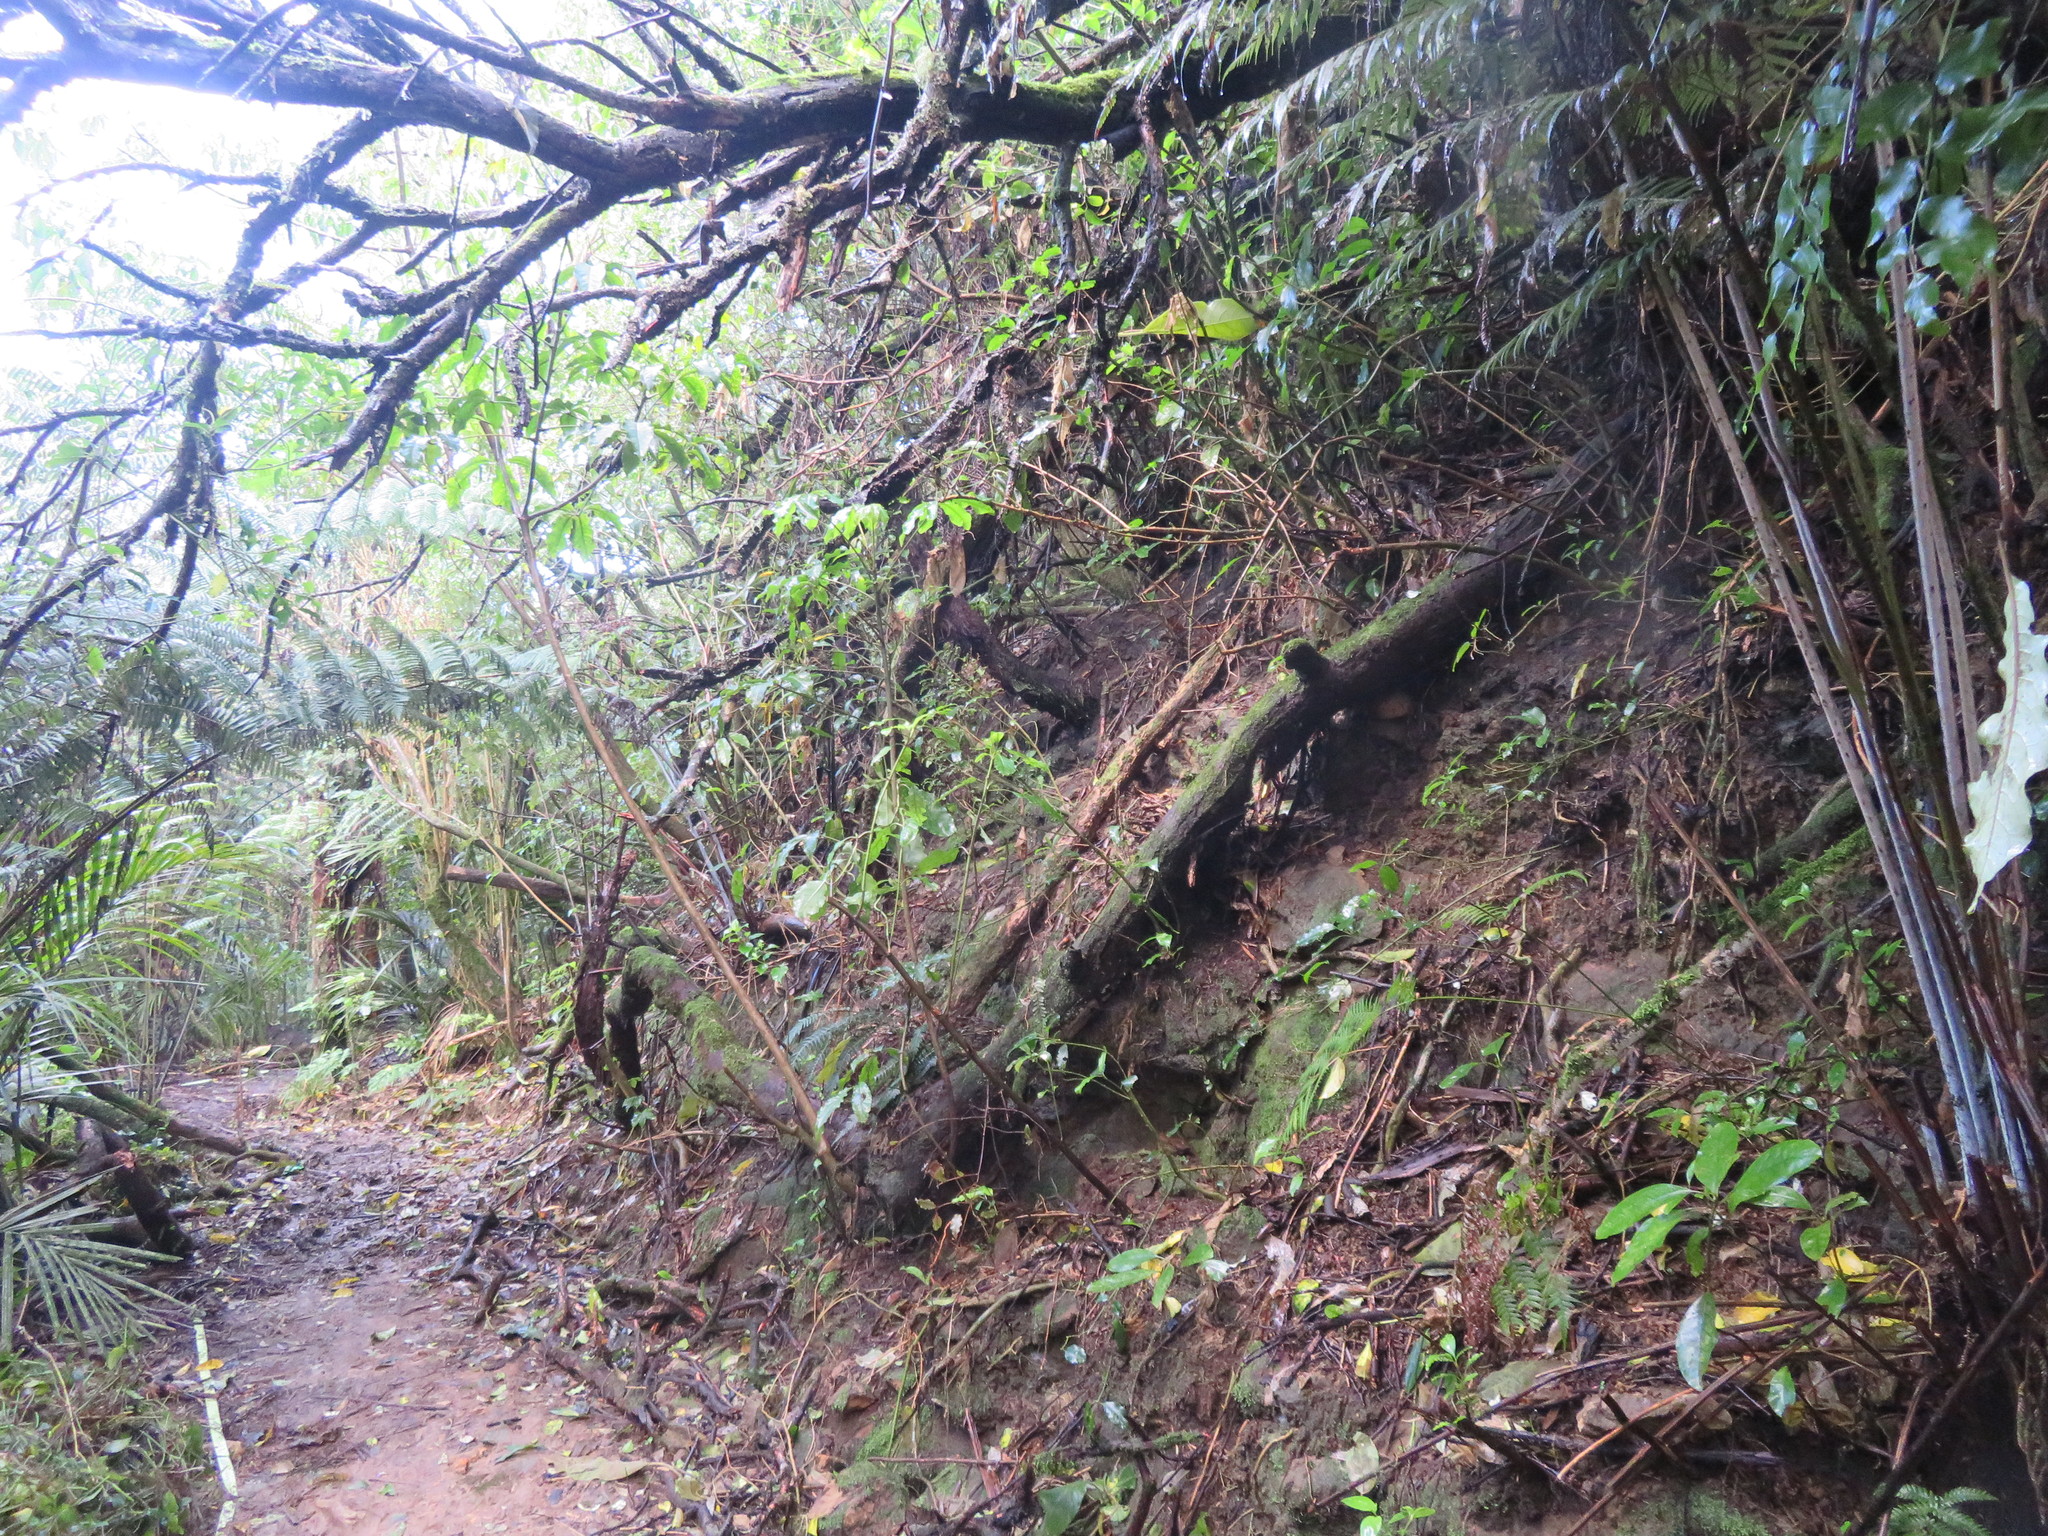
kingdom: Plantae
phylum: Tracheophyta
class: Magnoliopsida
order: Apiales
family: Araliaceae
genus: Schefflera
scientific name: Schefflera digitata
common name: Pate
